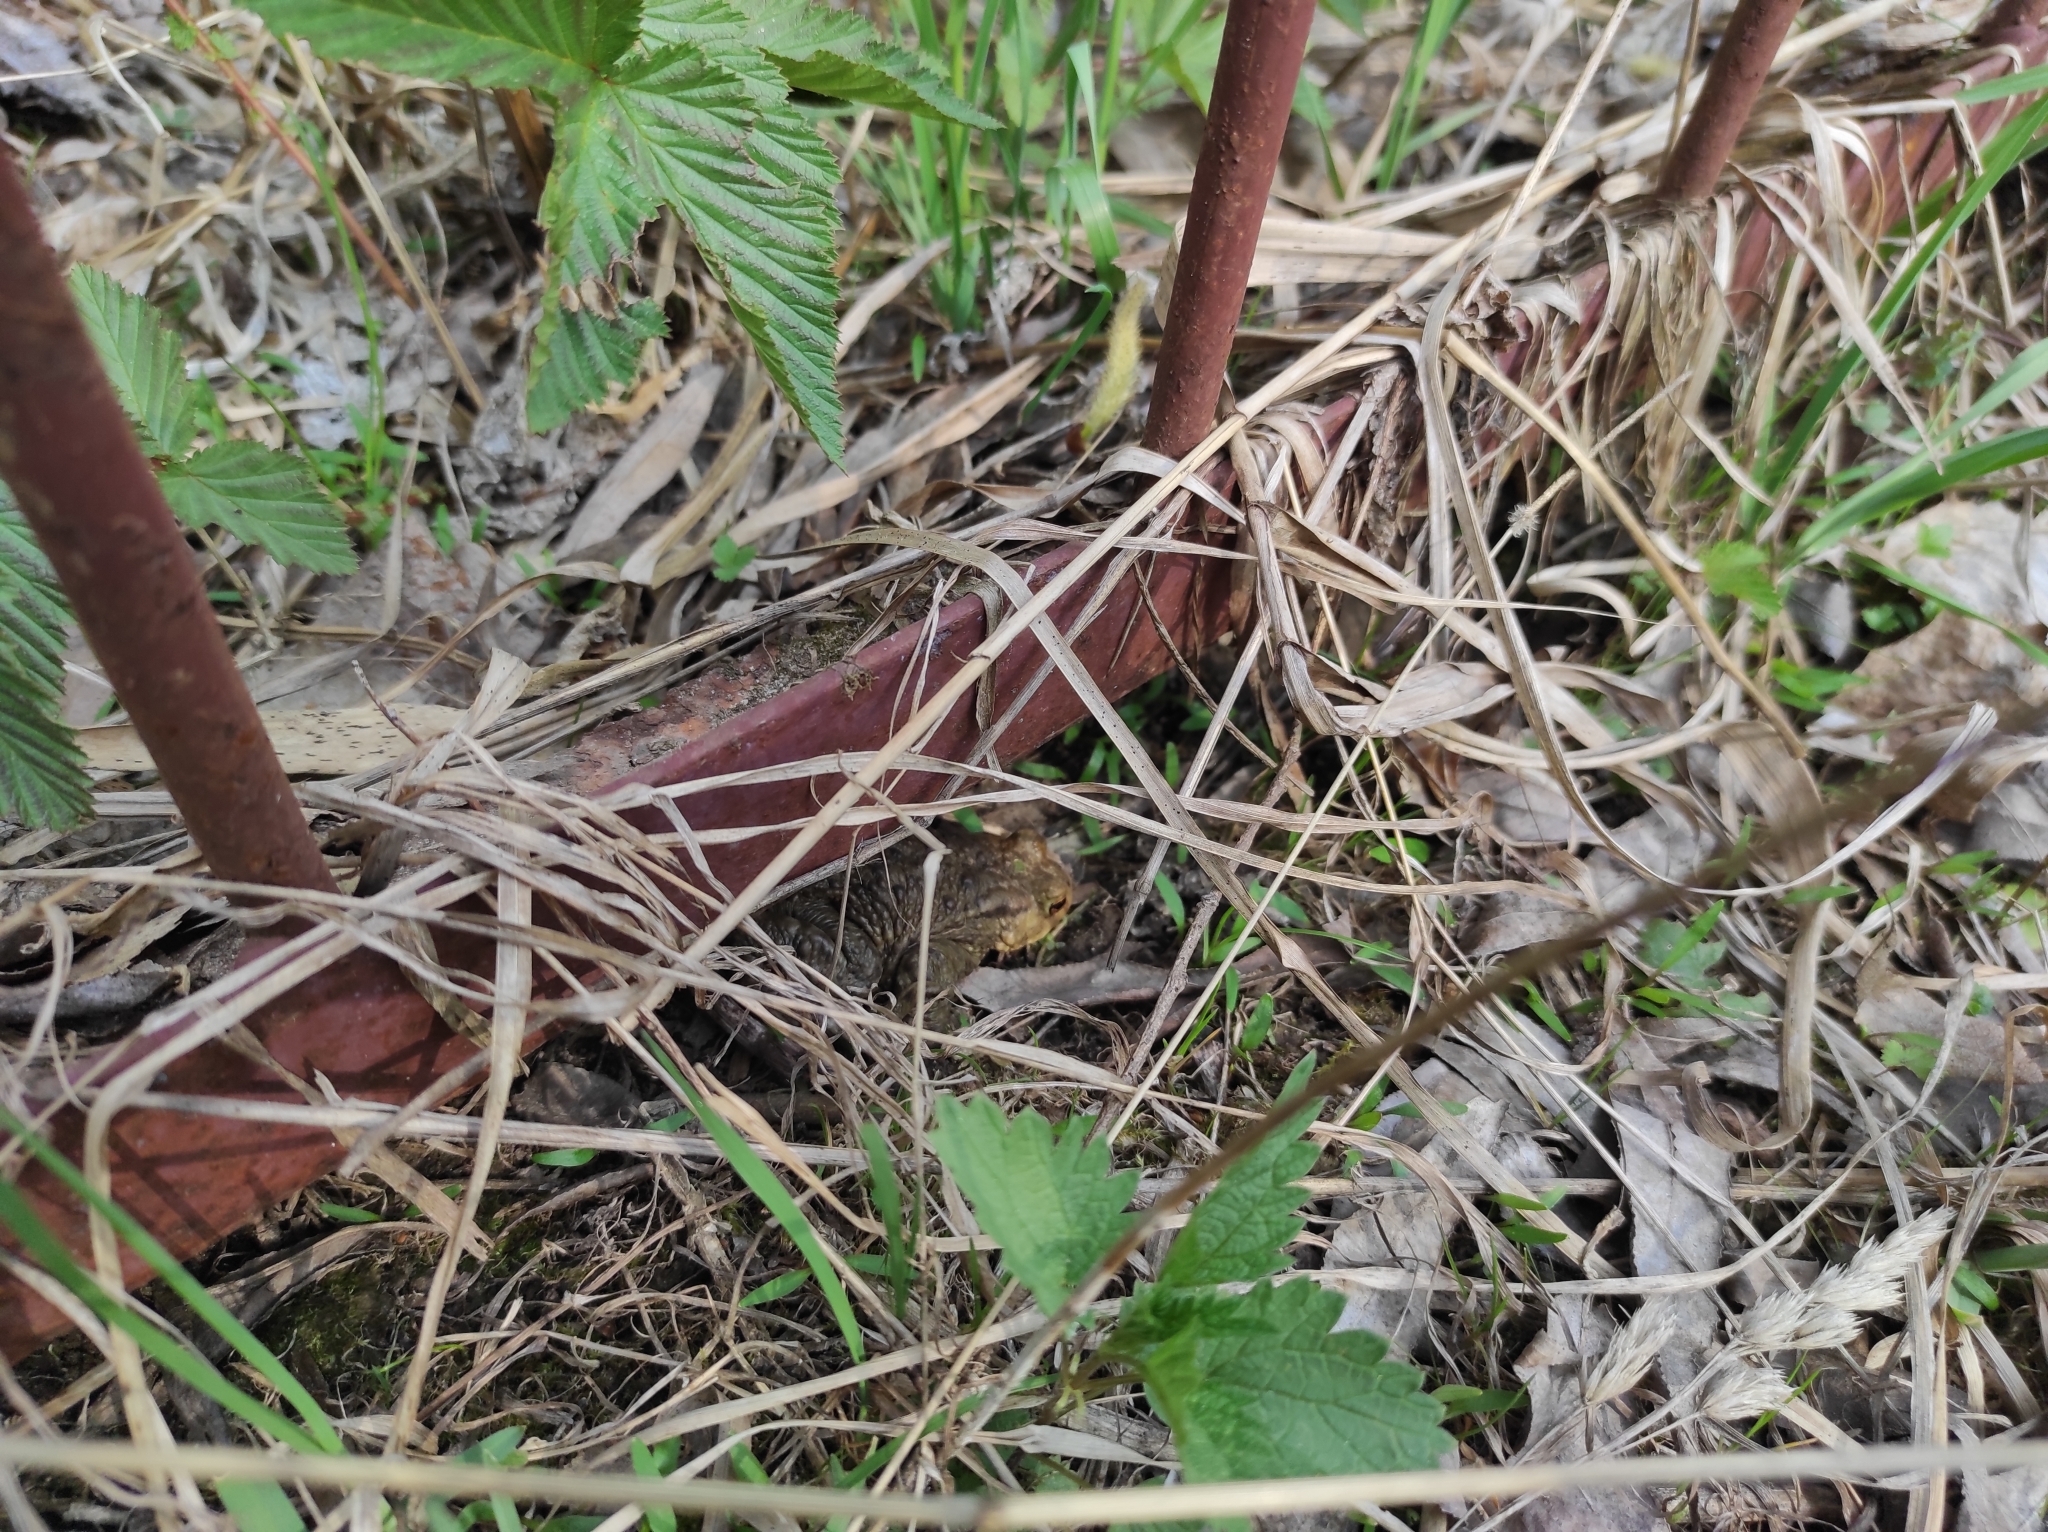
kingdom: Animalia
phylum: Chordata
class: Amphibia
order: Anura
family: Bufonidae
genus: Bufo
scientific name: Bufo bufo
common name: Common toad
